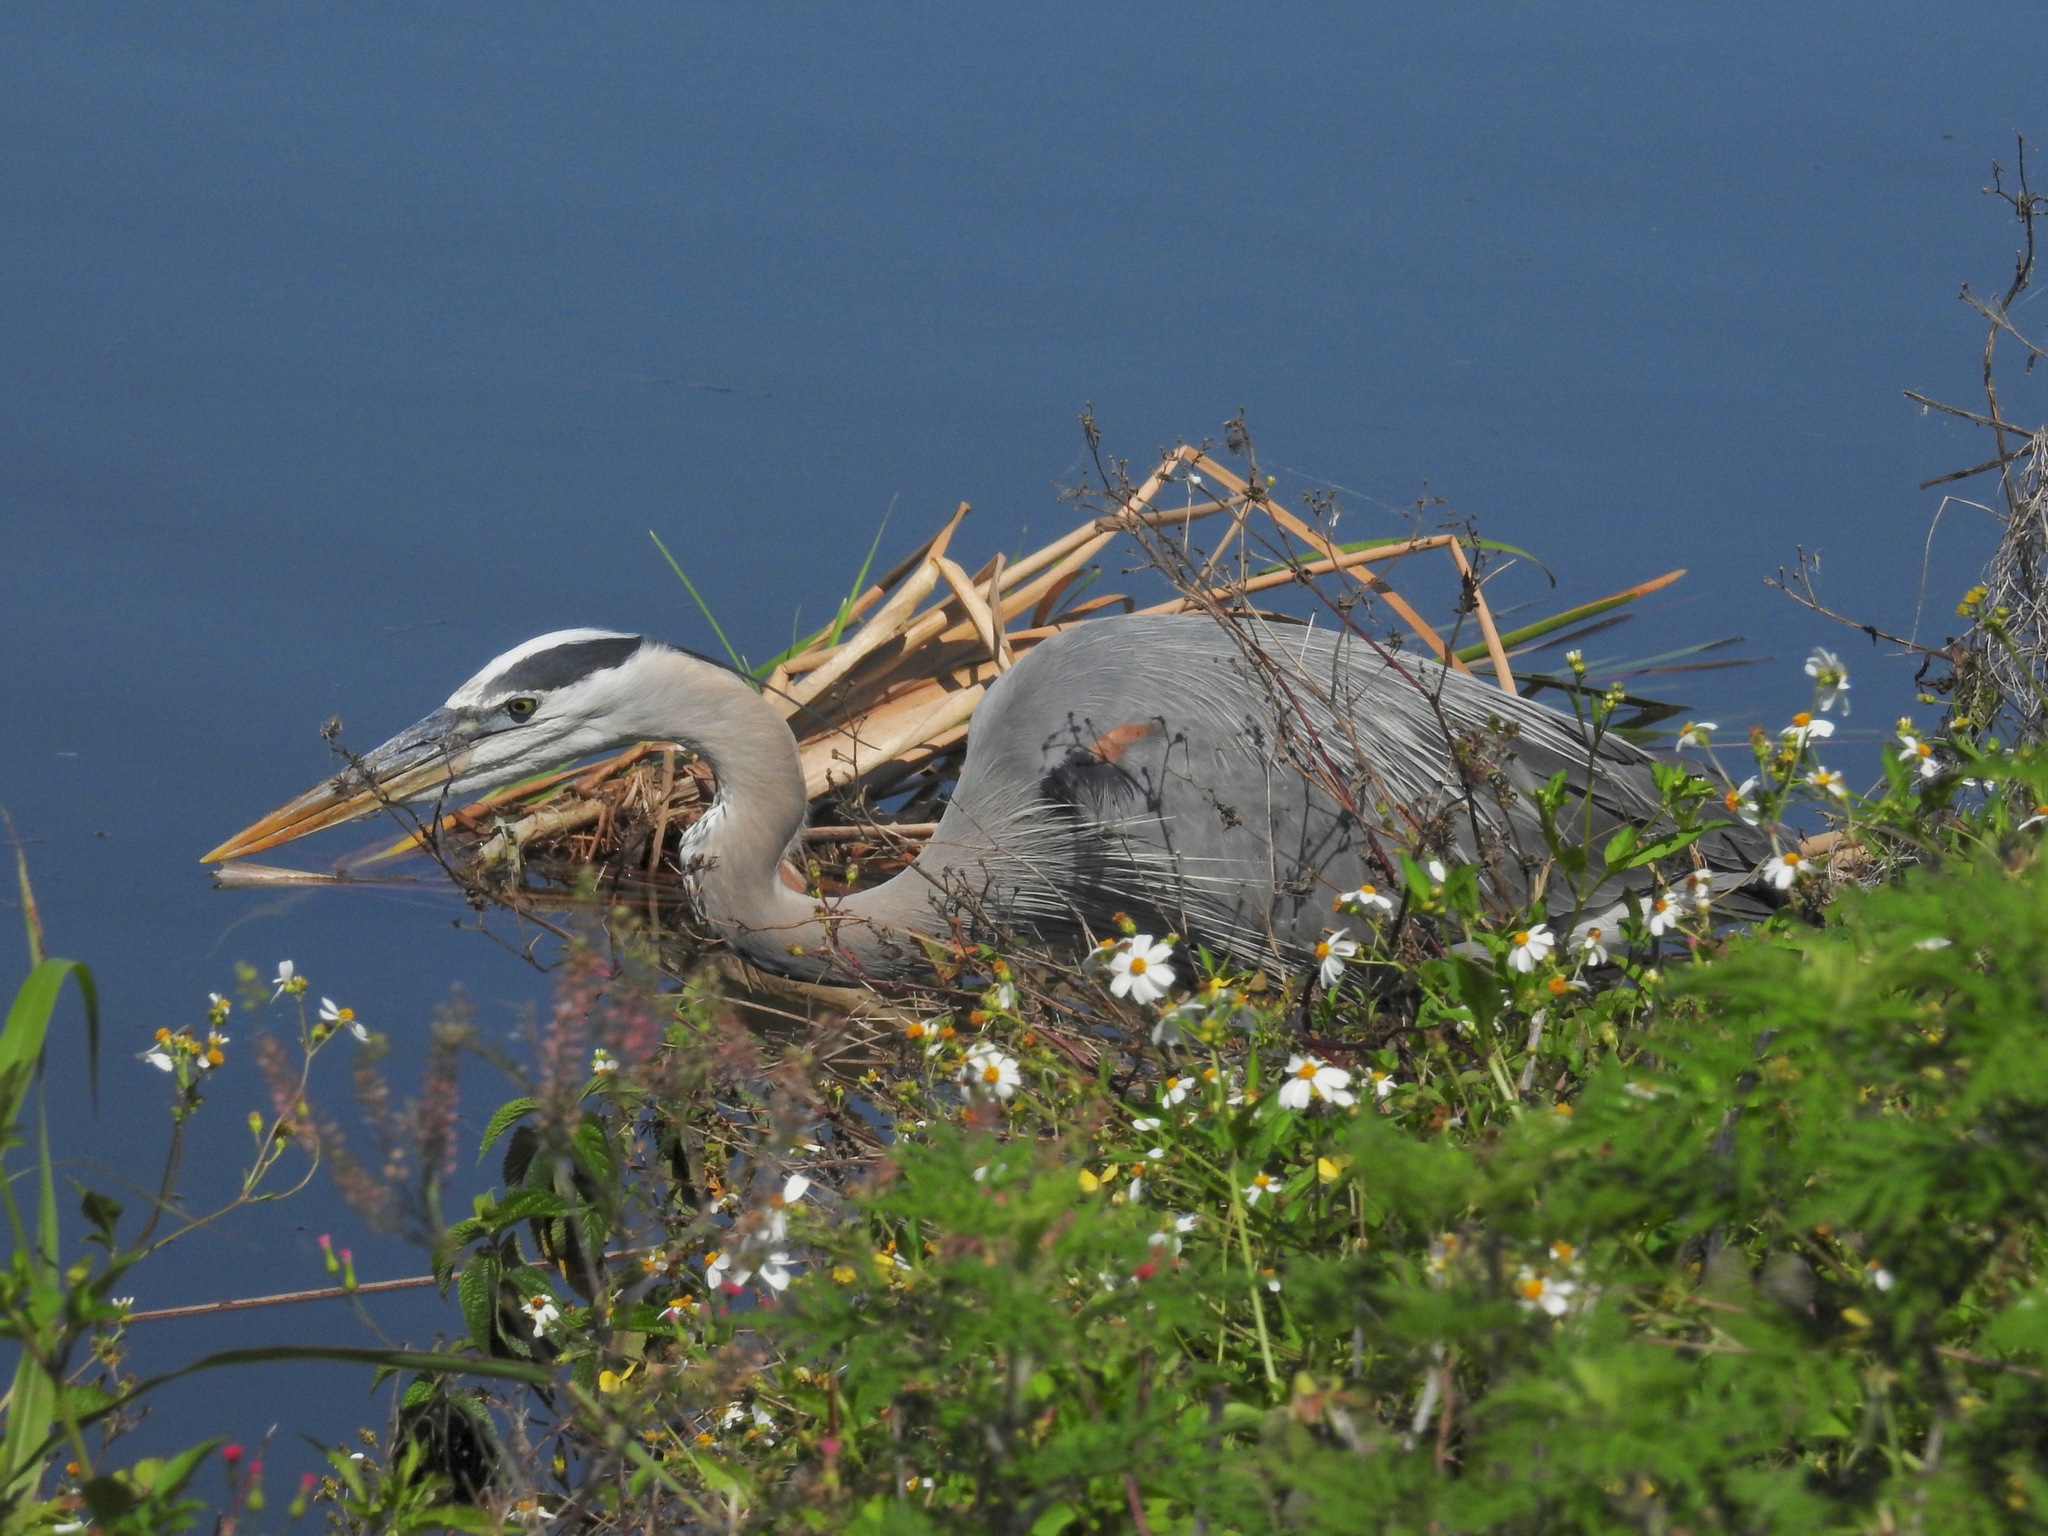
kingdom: Animalia
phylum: Chordata
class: Aves
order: Pelecaniformes
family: Ardeidae
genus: Ardea
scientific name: Ardea herodias
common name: Great blue heron
